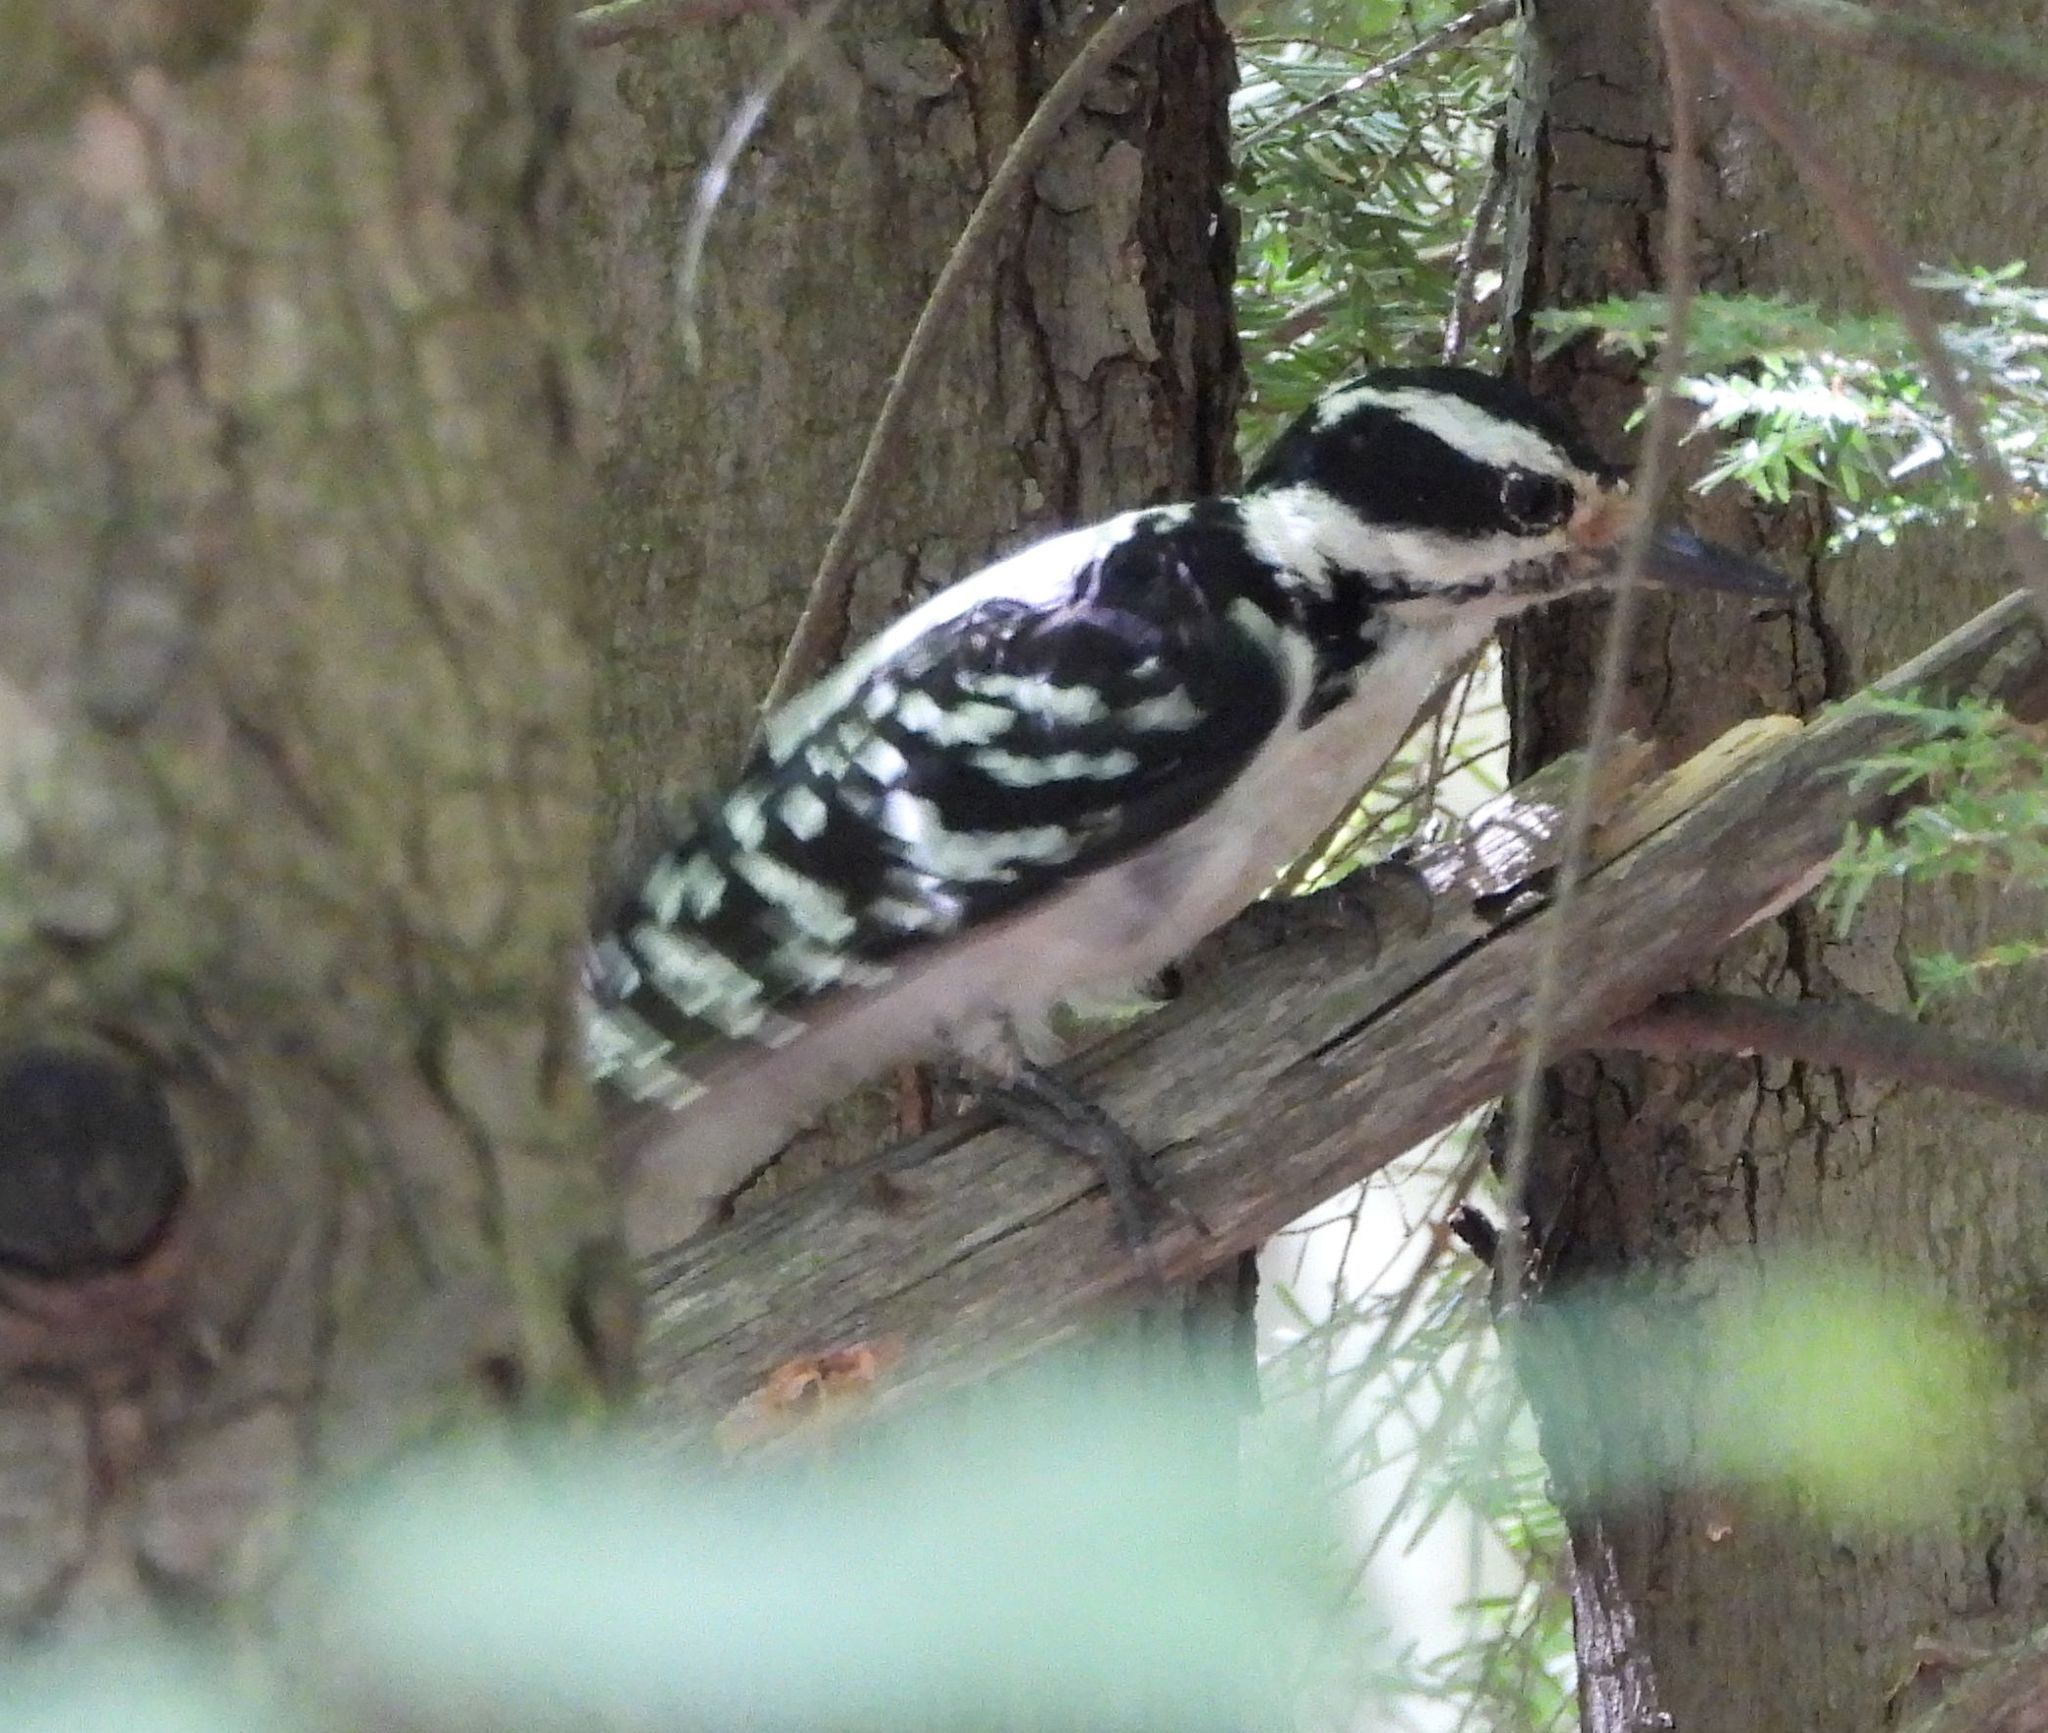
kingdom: Animalia
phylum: Chordata
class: Aves
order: Piciformes
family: Picidae
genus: Leuconotopicus
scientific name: Leuconotopicus villosus
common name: Hairy woodpecker
